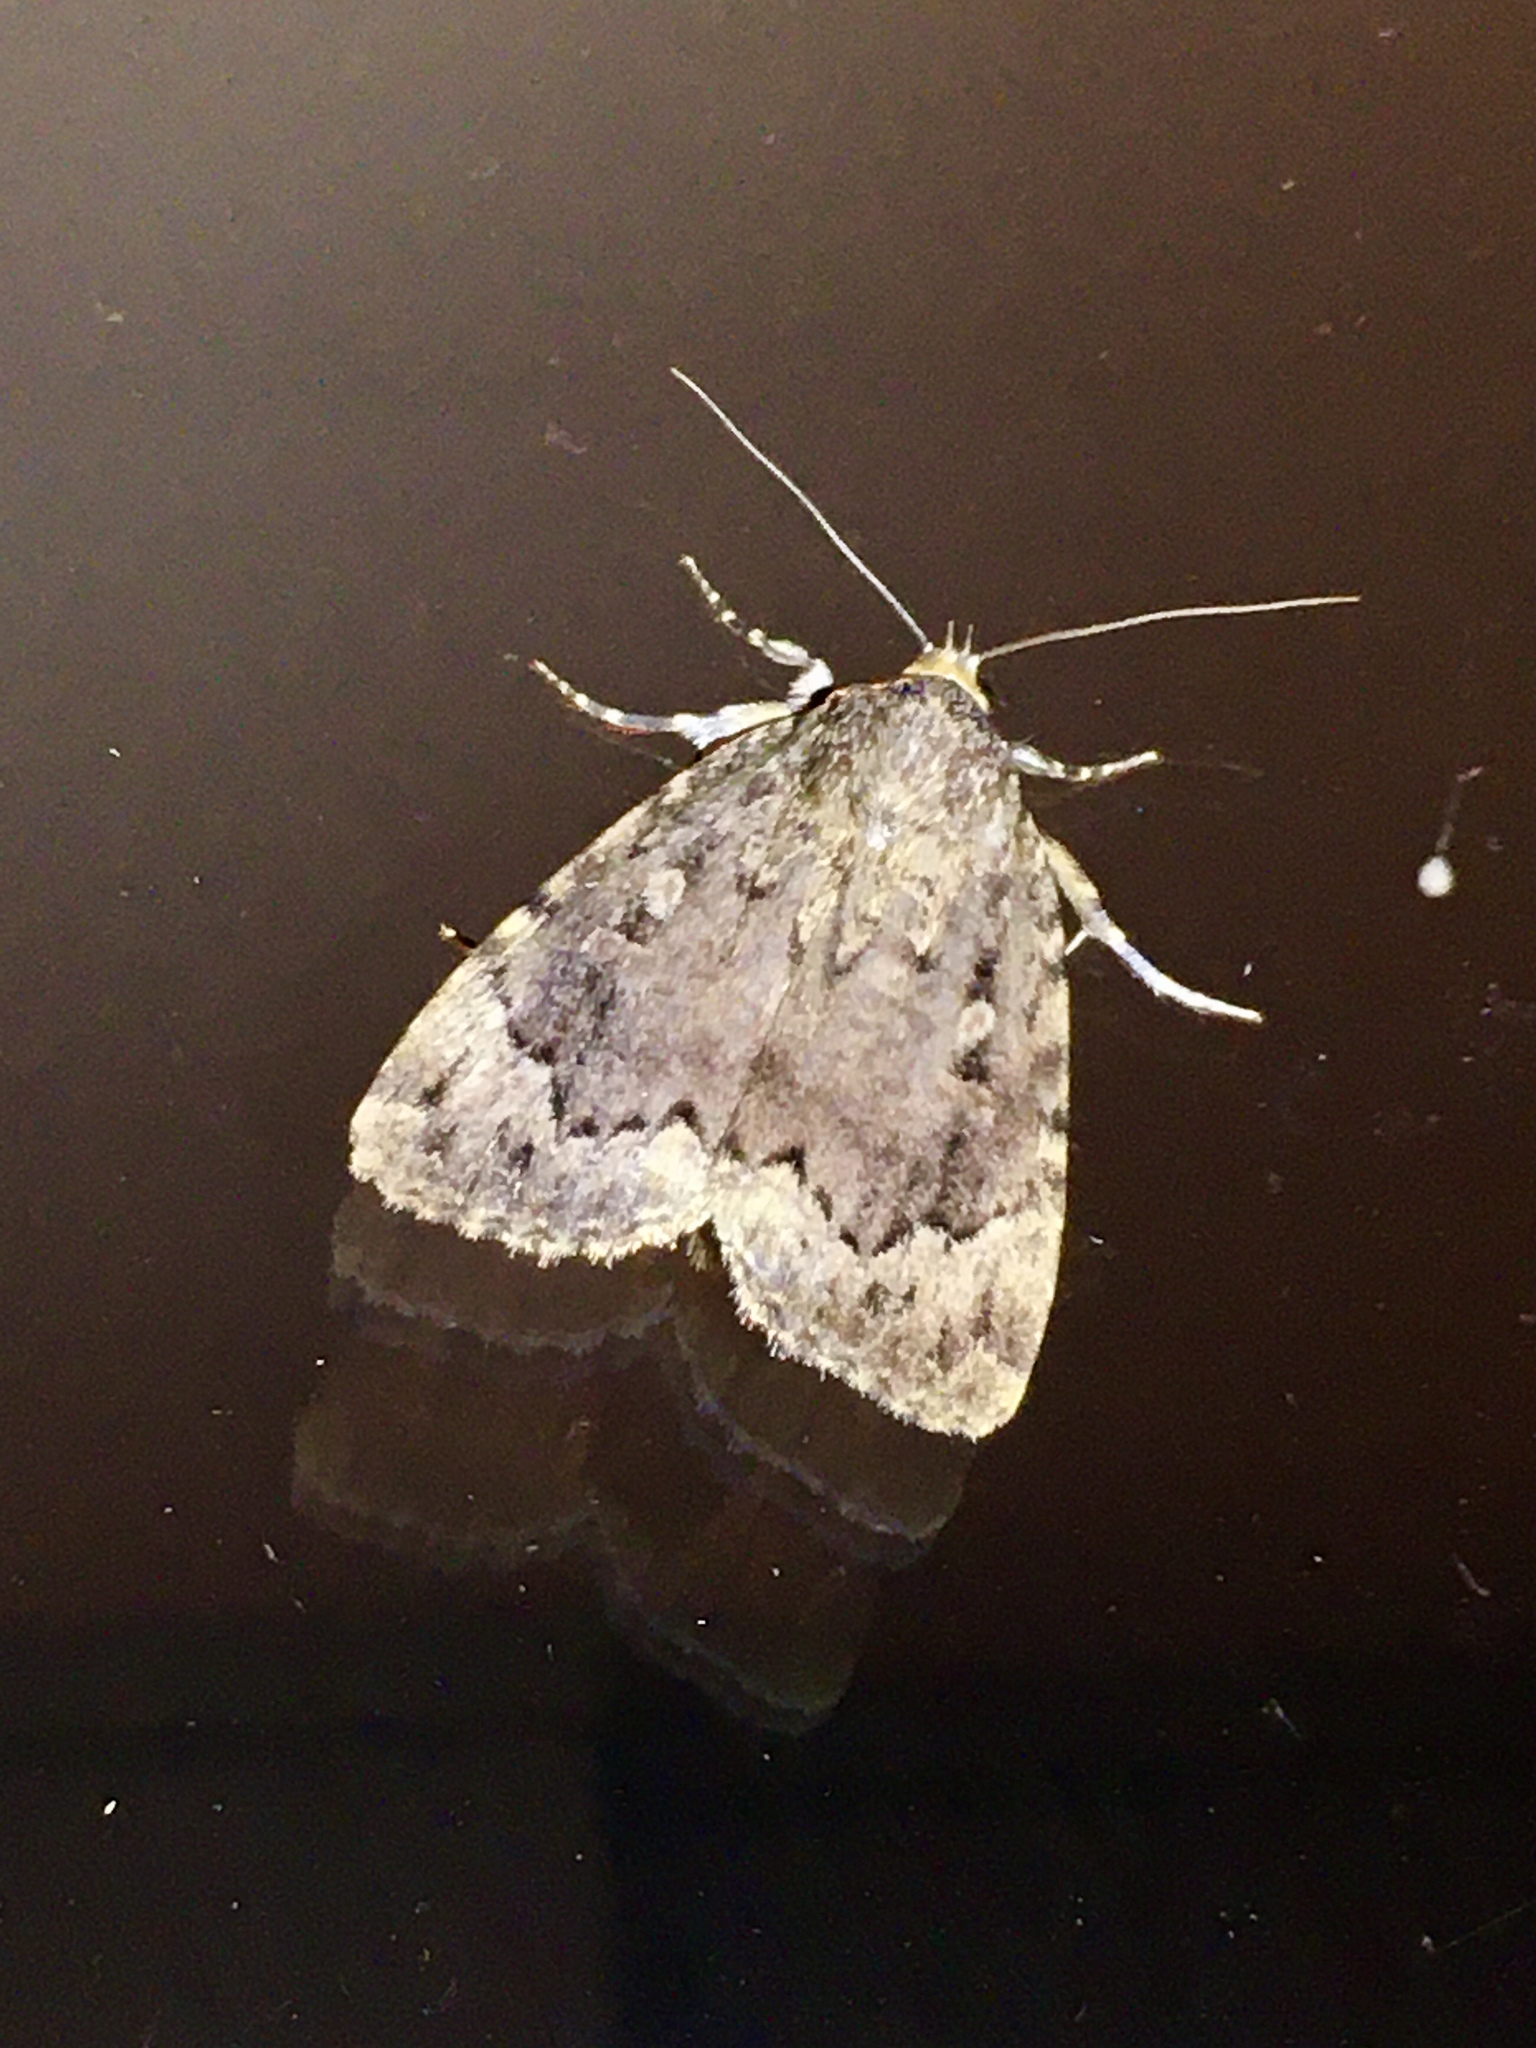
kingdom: Animalia
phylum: Arthropoda
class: Insecta
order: Lepidoptera
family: Noctuidae
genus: Amphipyra
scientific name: Amphipyra pyramidoides
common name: American copper underwing
